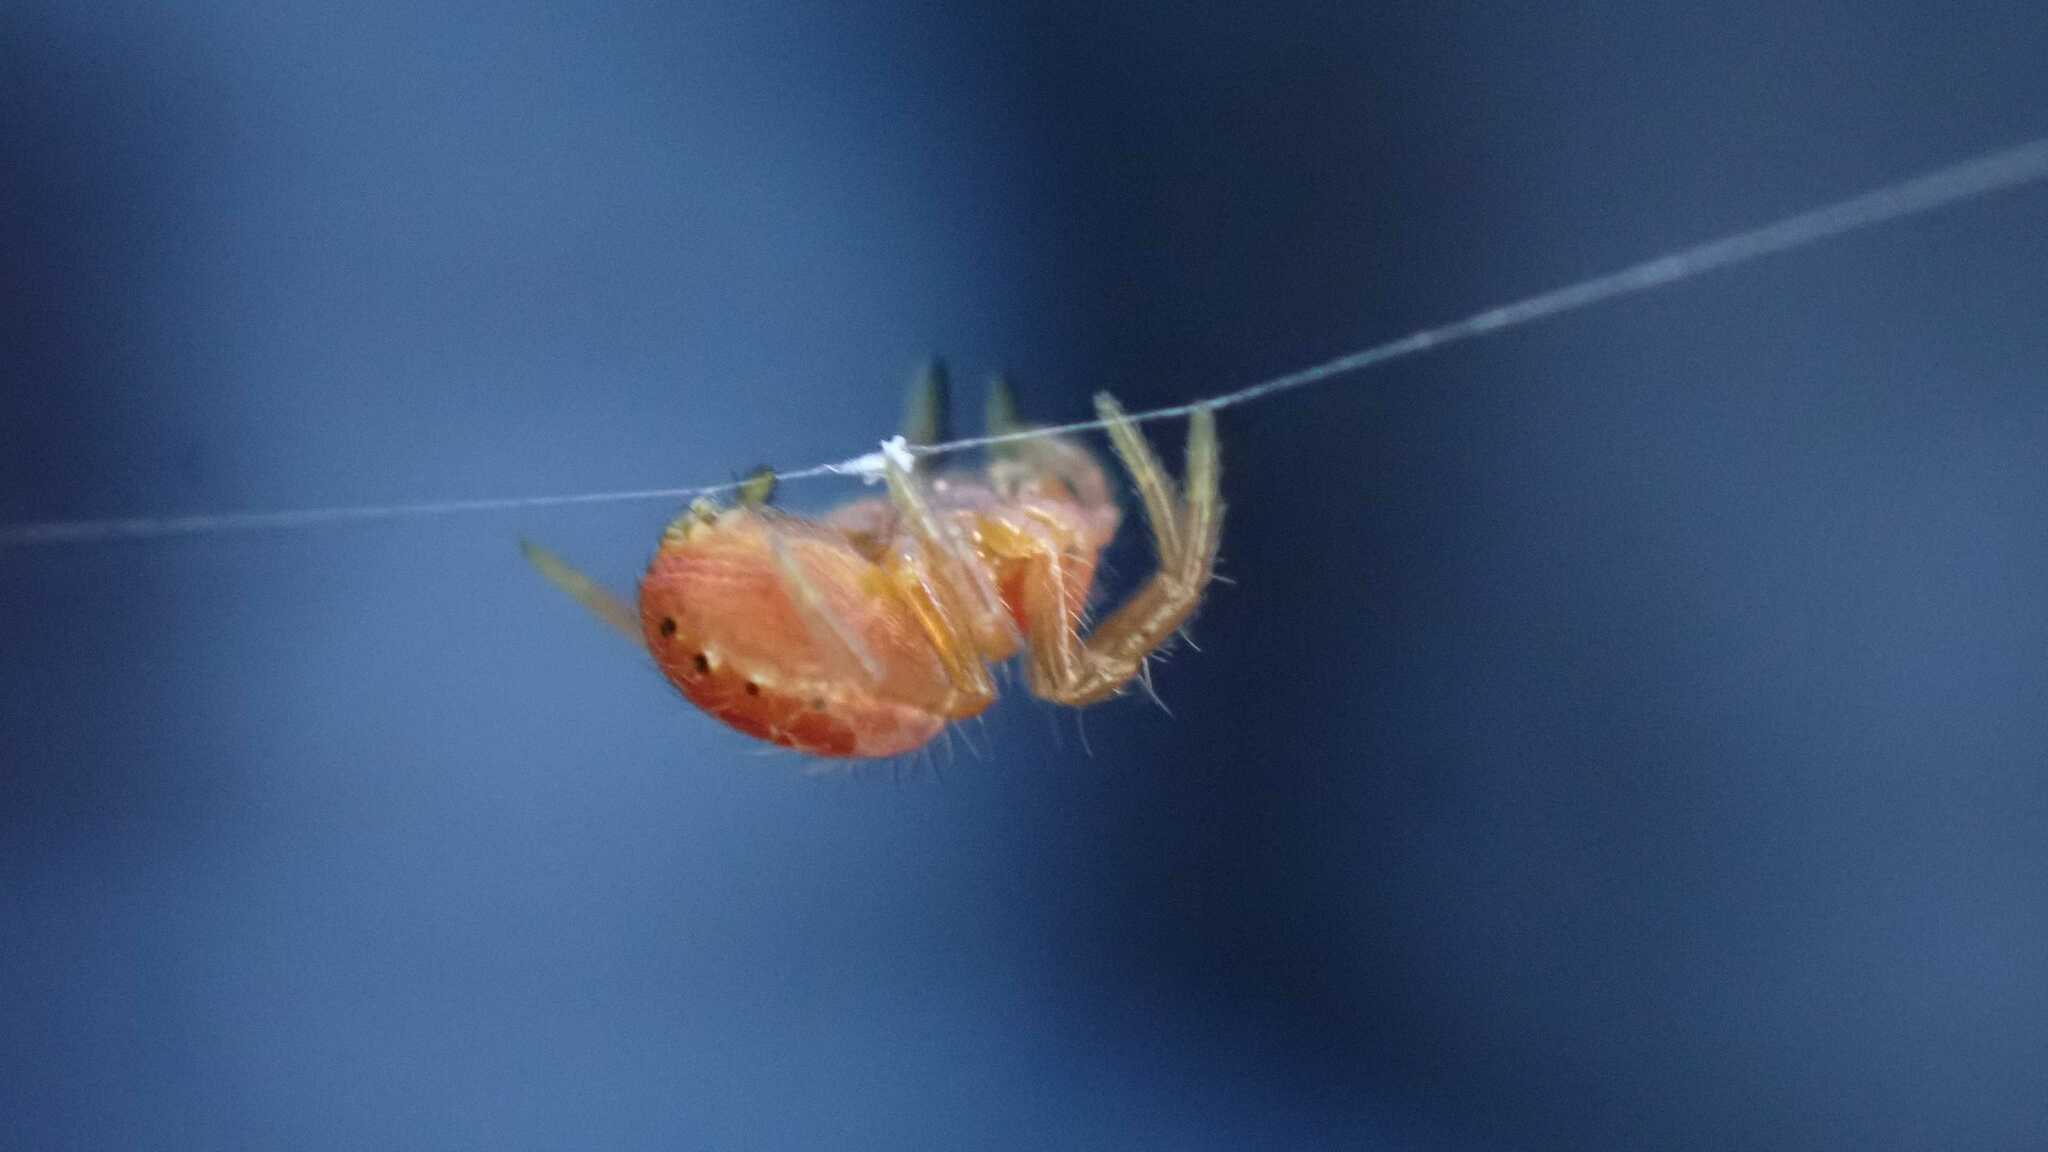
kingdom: Animalia
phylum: Arthropoda
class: Arachnida
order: Araneae
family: Araneidae
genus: Araniella
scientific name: Araniella
